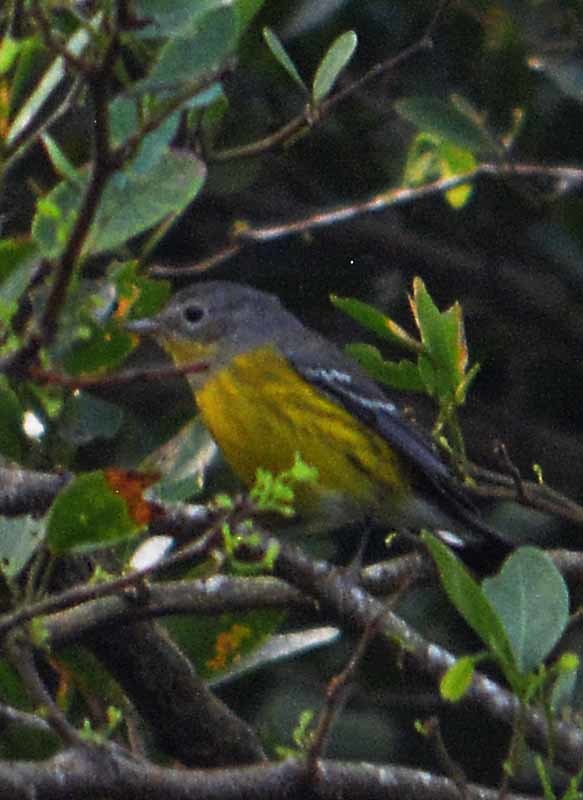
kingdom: Animalia
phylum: Chordata
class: Aves
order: Passeriformes
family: Parulidae
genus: Setophaga
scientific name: Setophaga magnolia
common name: Magnolia warbler
